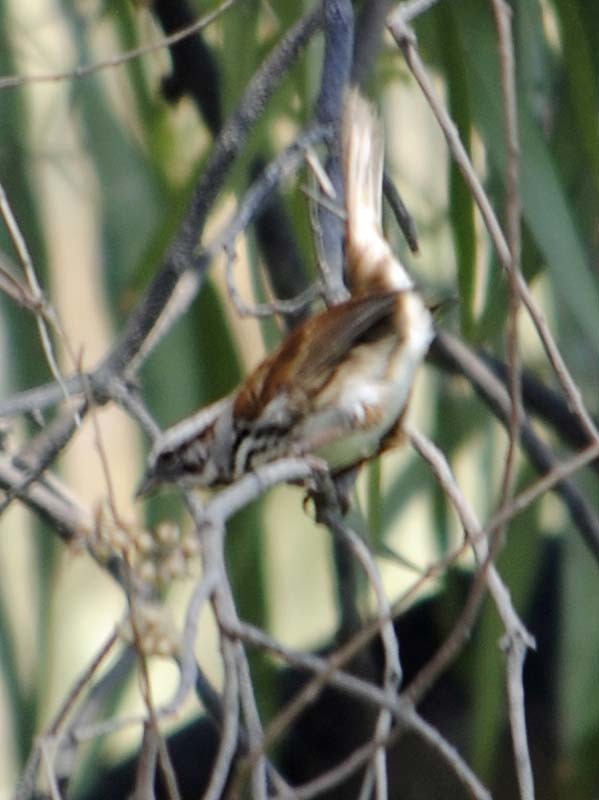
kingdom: Animalia
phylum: Chordata
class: Aves
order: Passeriformes
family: Passerellidae
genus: Melospiza
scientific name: Melospiza melodia
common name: Song sparrow
